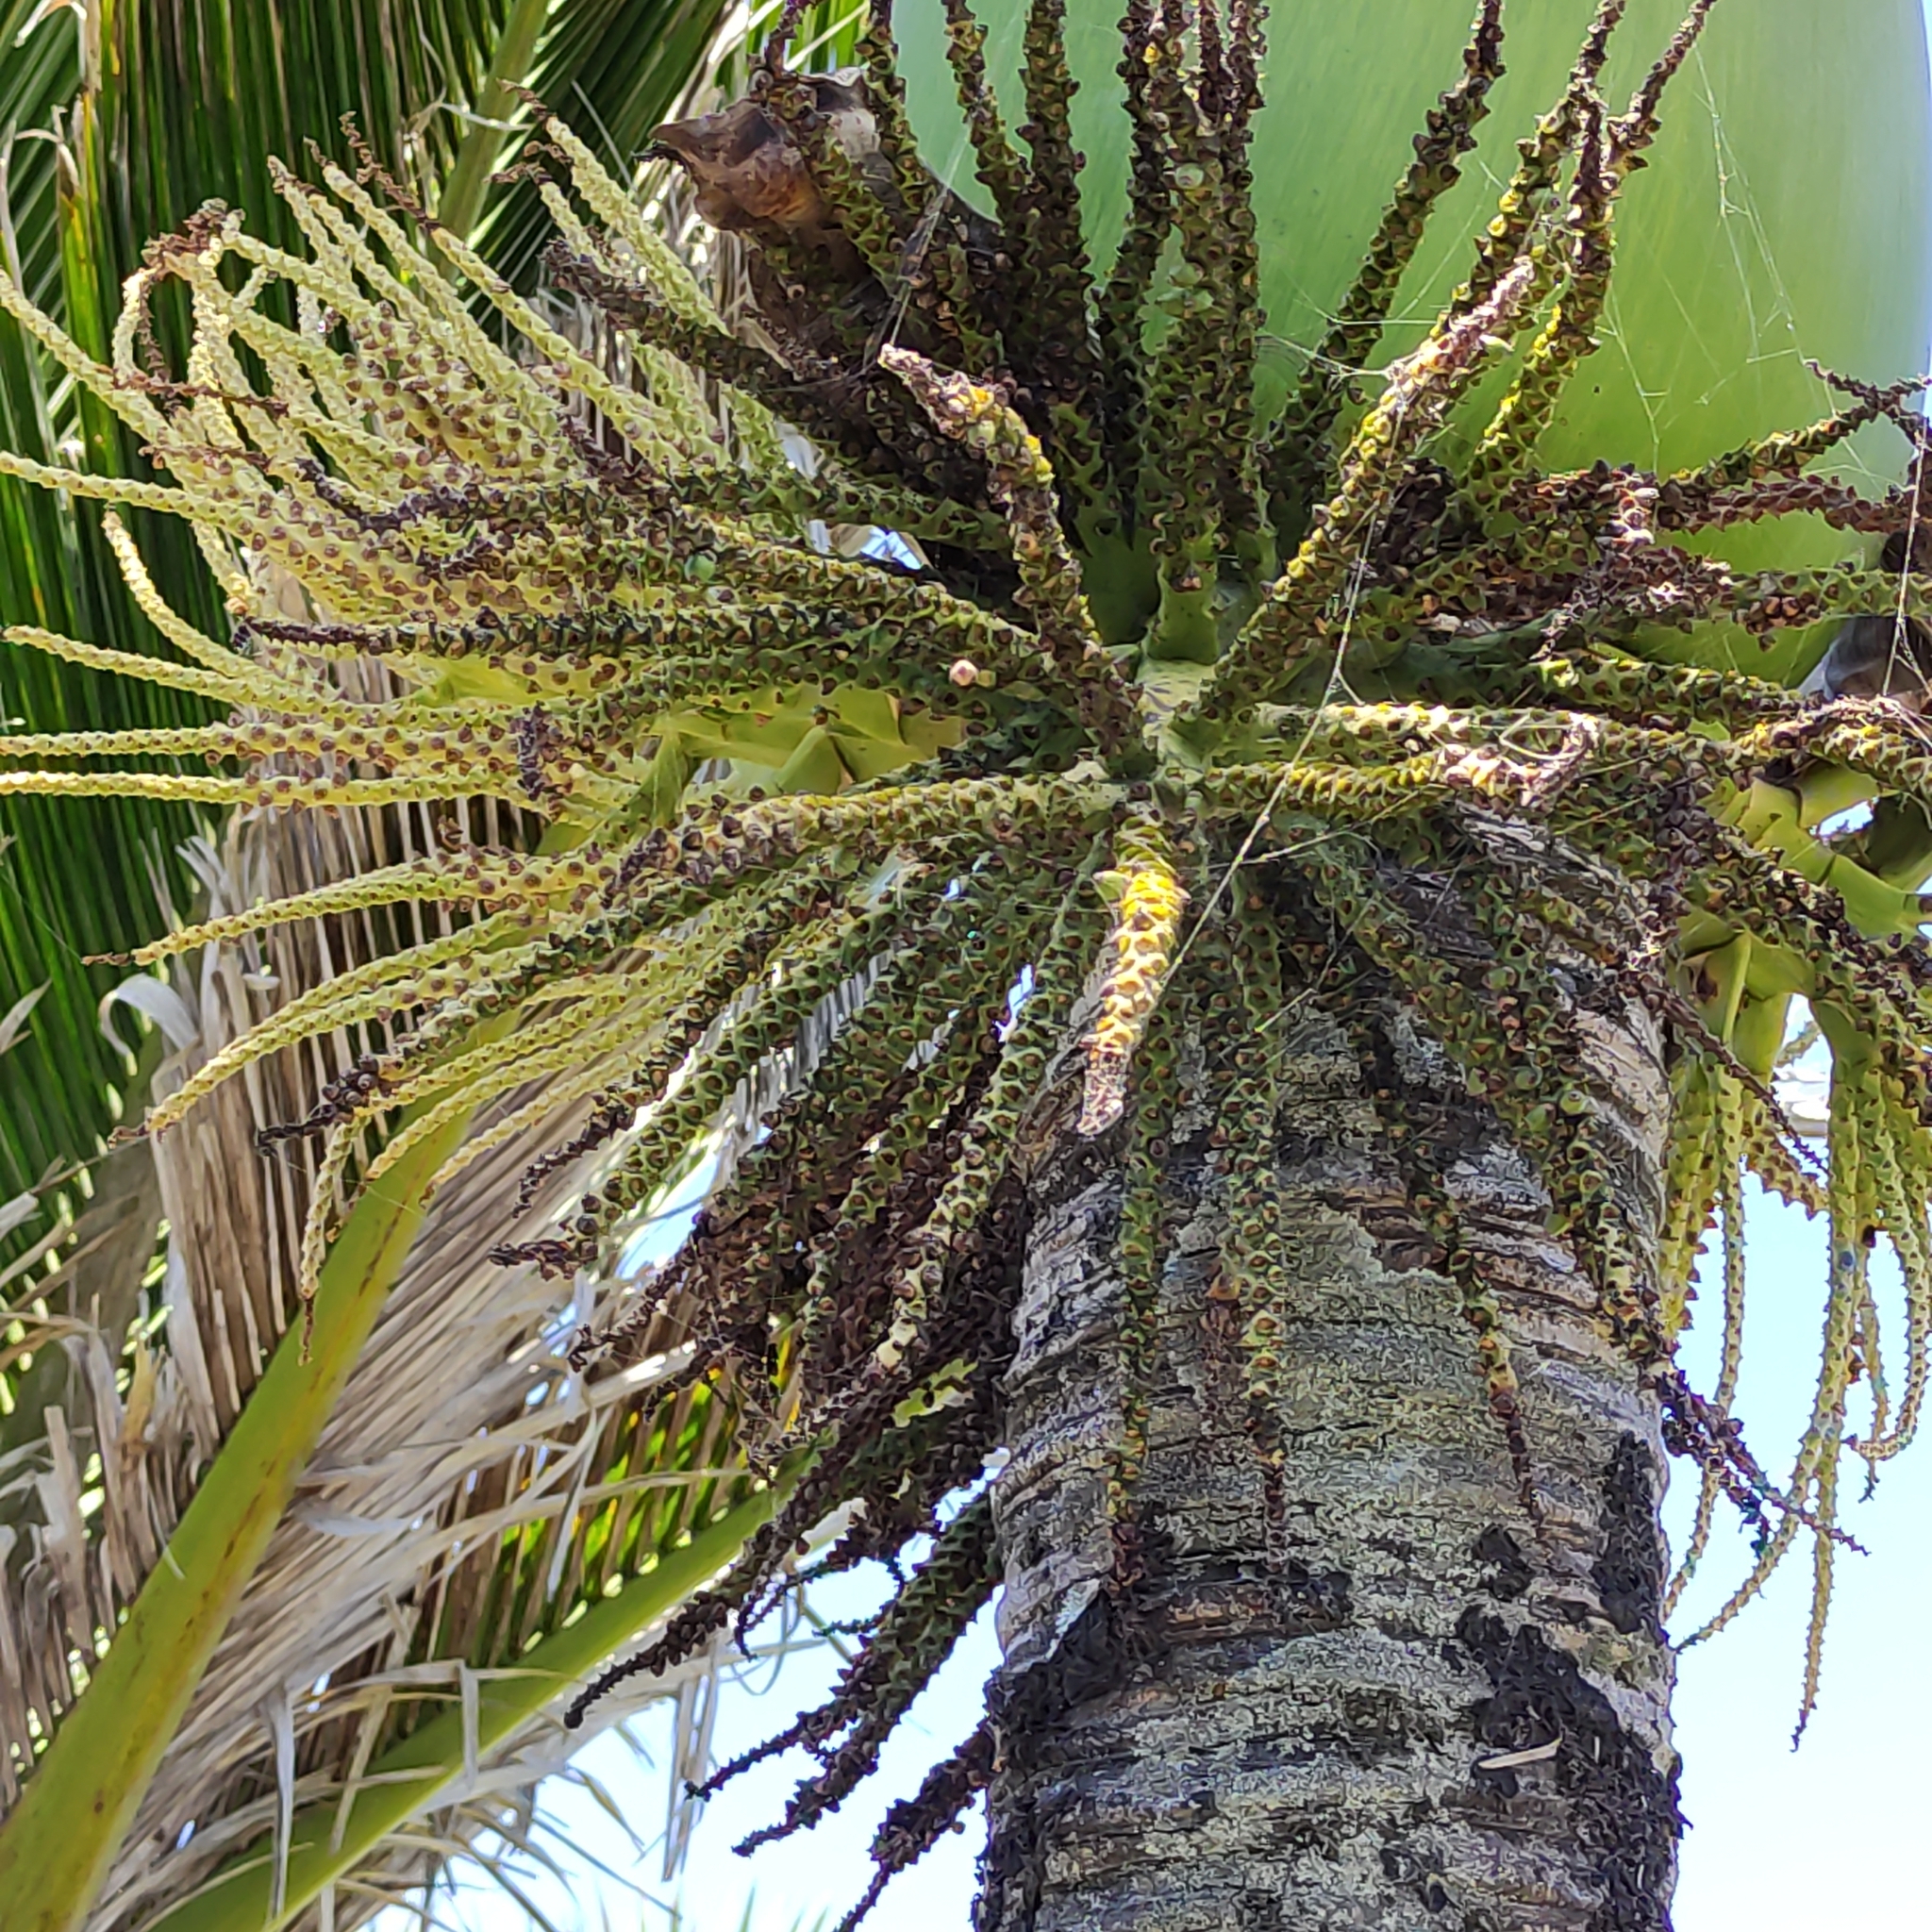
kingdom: Plantae
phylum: Tracheophyta
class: Liliopsida
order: Arecales
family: Arecaceae
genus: Rhopalostylis
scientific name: Rhopalostylis sapida
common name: Feather-duster palm
